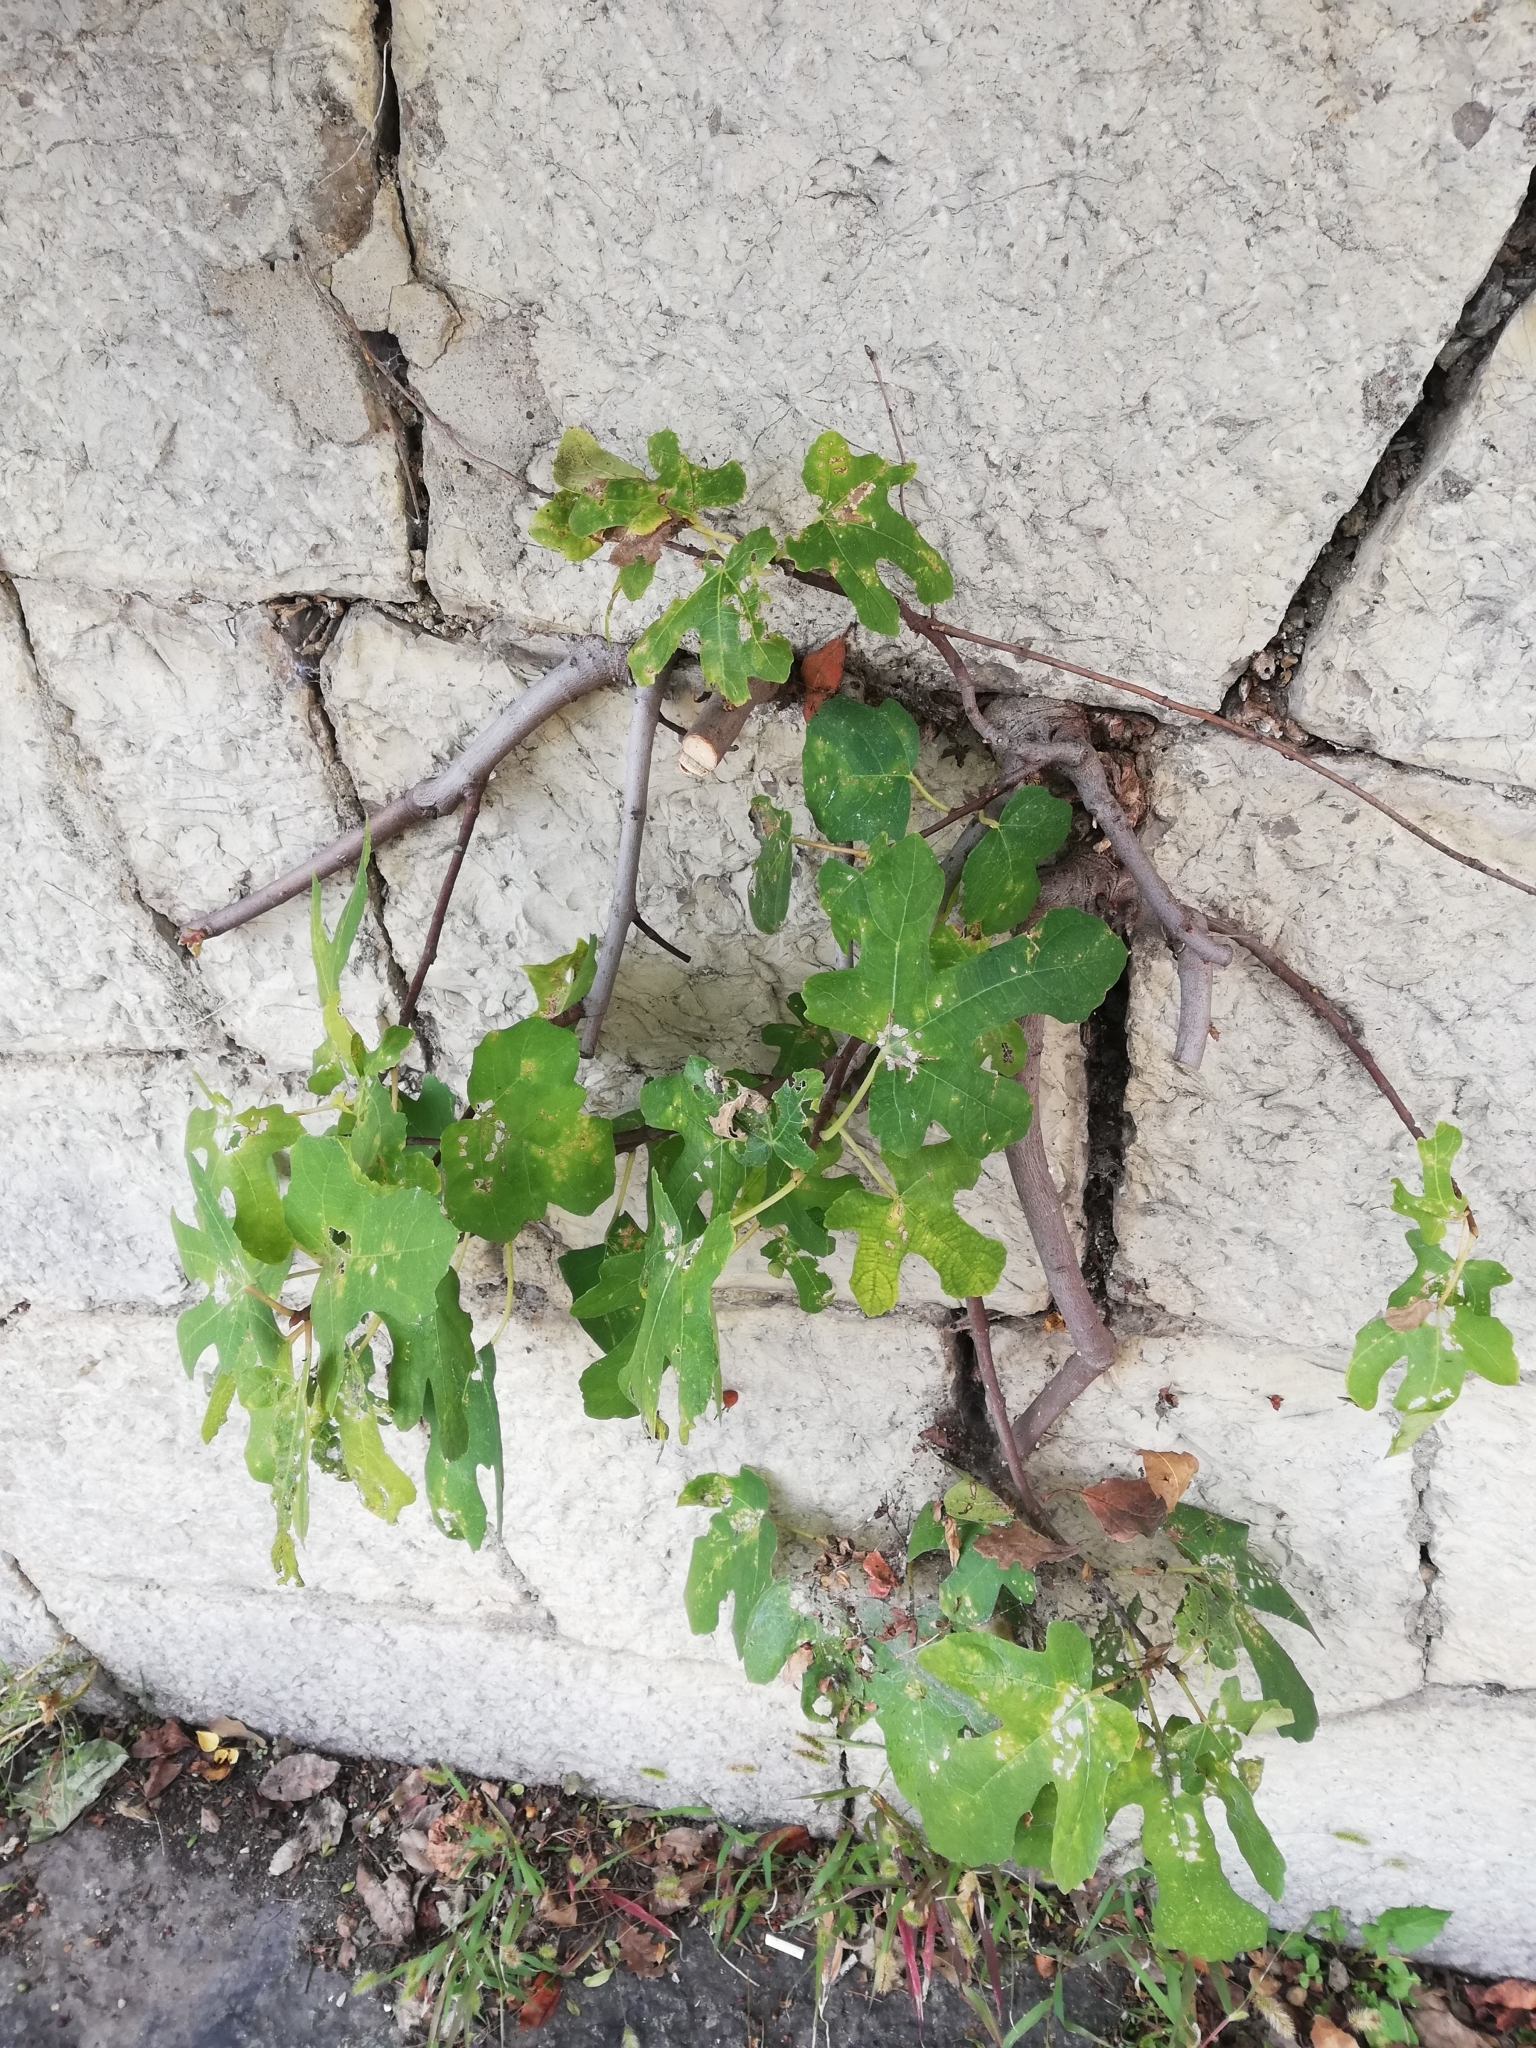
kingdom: Plantae
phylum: Tracheophyta
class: Magnoliopsida
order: Rosales
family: Moraceae
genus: Ficus
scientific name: Ficus carica
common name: Fig
